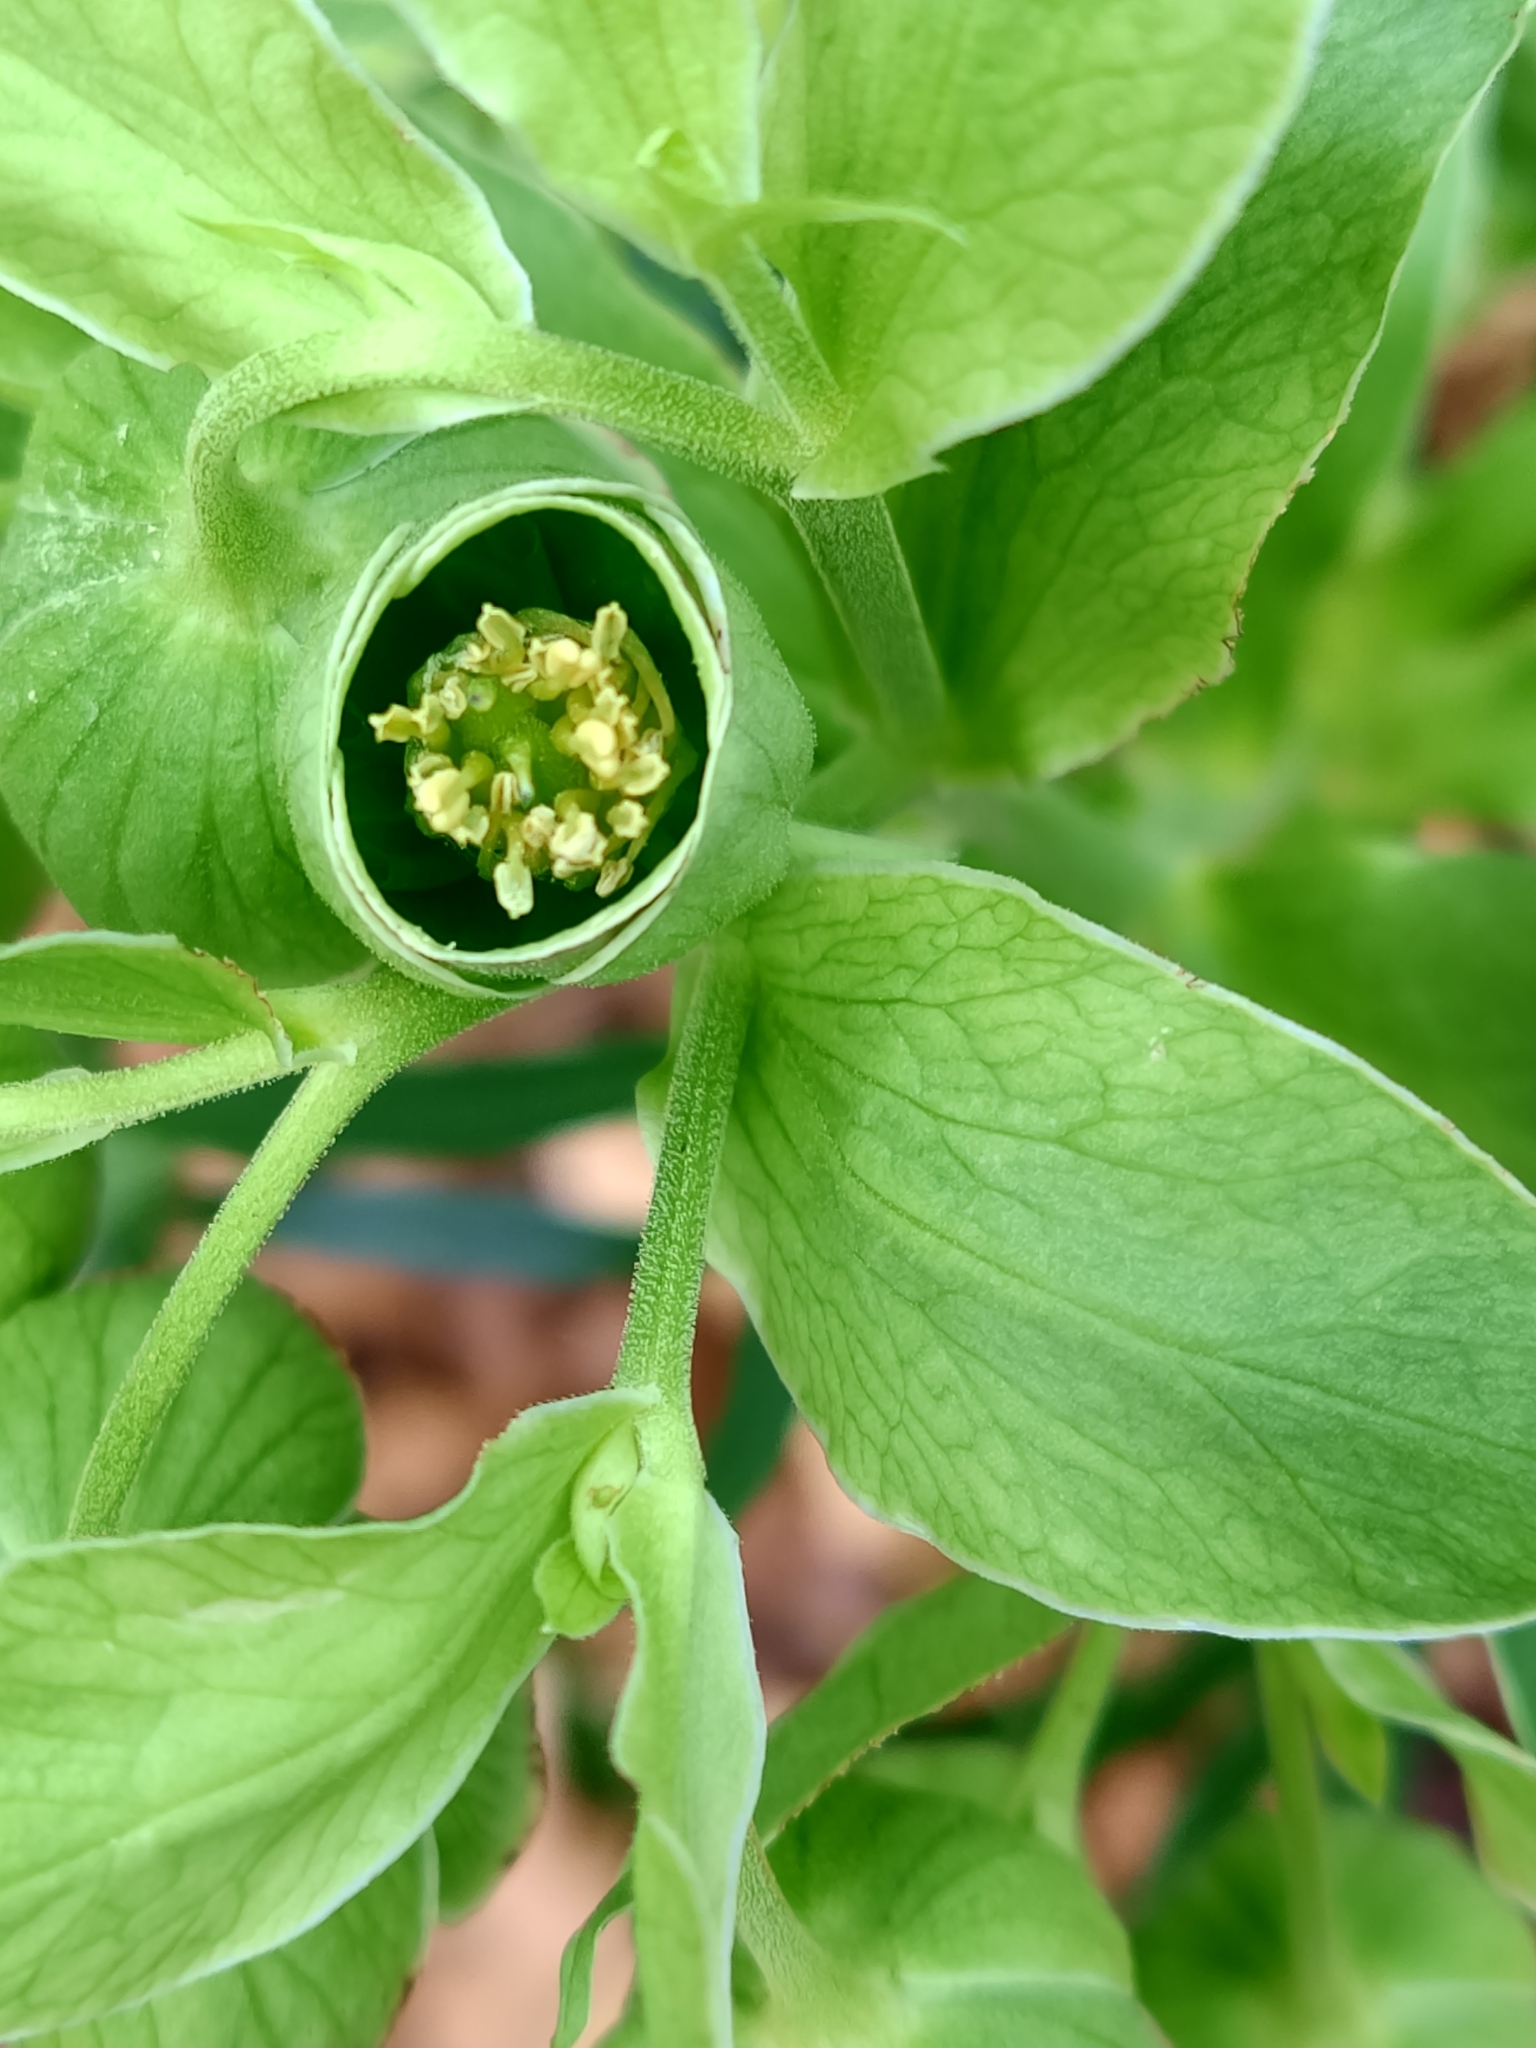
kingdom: Plantae
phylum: Tracheophyta
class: Magnoliopsida
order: Ranunculales
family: Ranunculaceae
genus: Helleborus
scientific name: Helleborus foetidus
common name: Stinking hellebore
